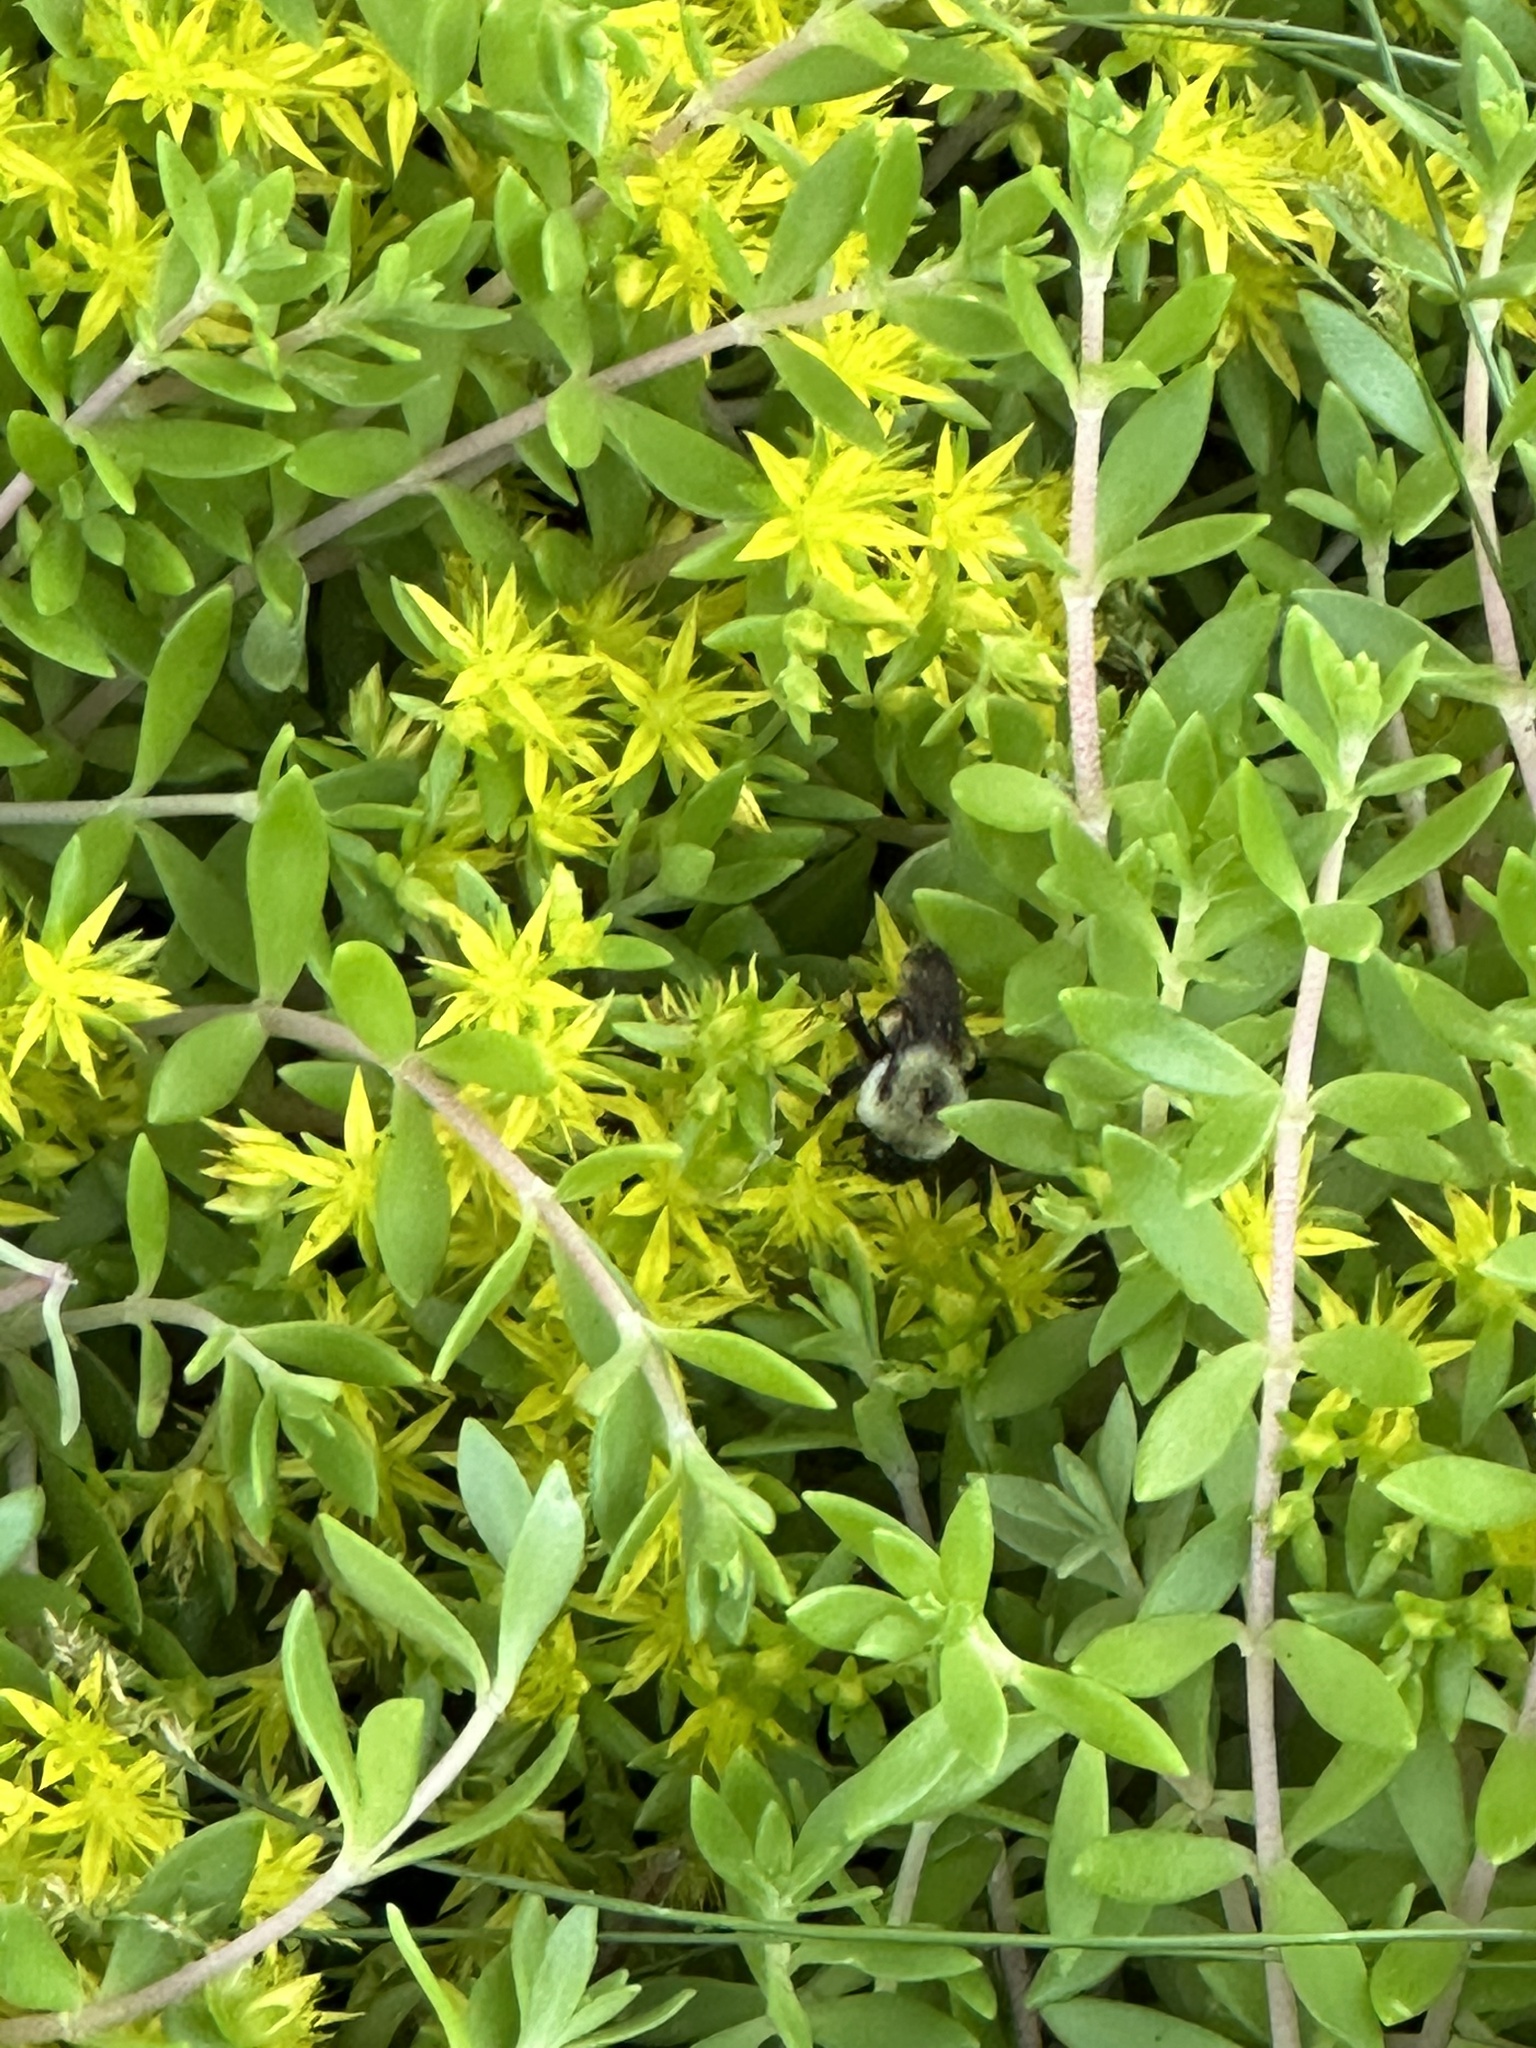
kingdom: Animalia
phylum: Arthropoda
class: Insecta
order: Hymenoptera
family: Apidae
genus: Bombus
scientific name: Bombus griseocollis
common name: Brown-belted bumble bee
